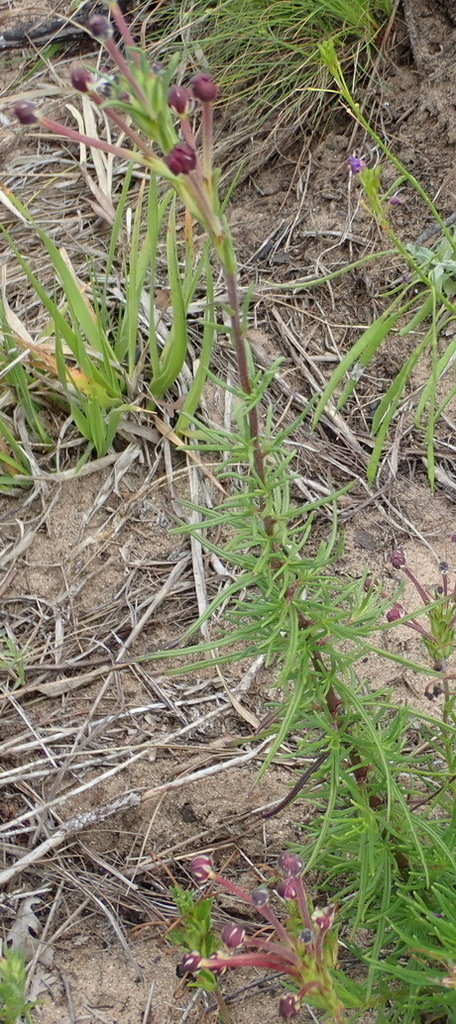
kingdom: Plantae
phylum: Tracheophyta
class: Magnoliopsida
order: Lamiales
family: Scrophulariaceae
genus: Zaluzianskya
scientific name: Zaluzianskya capensis
